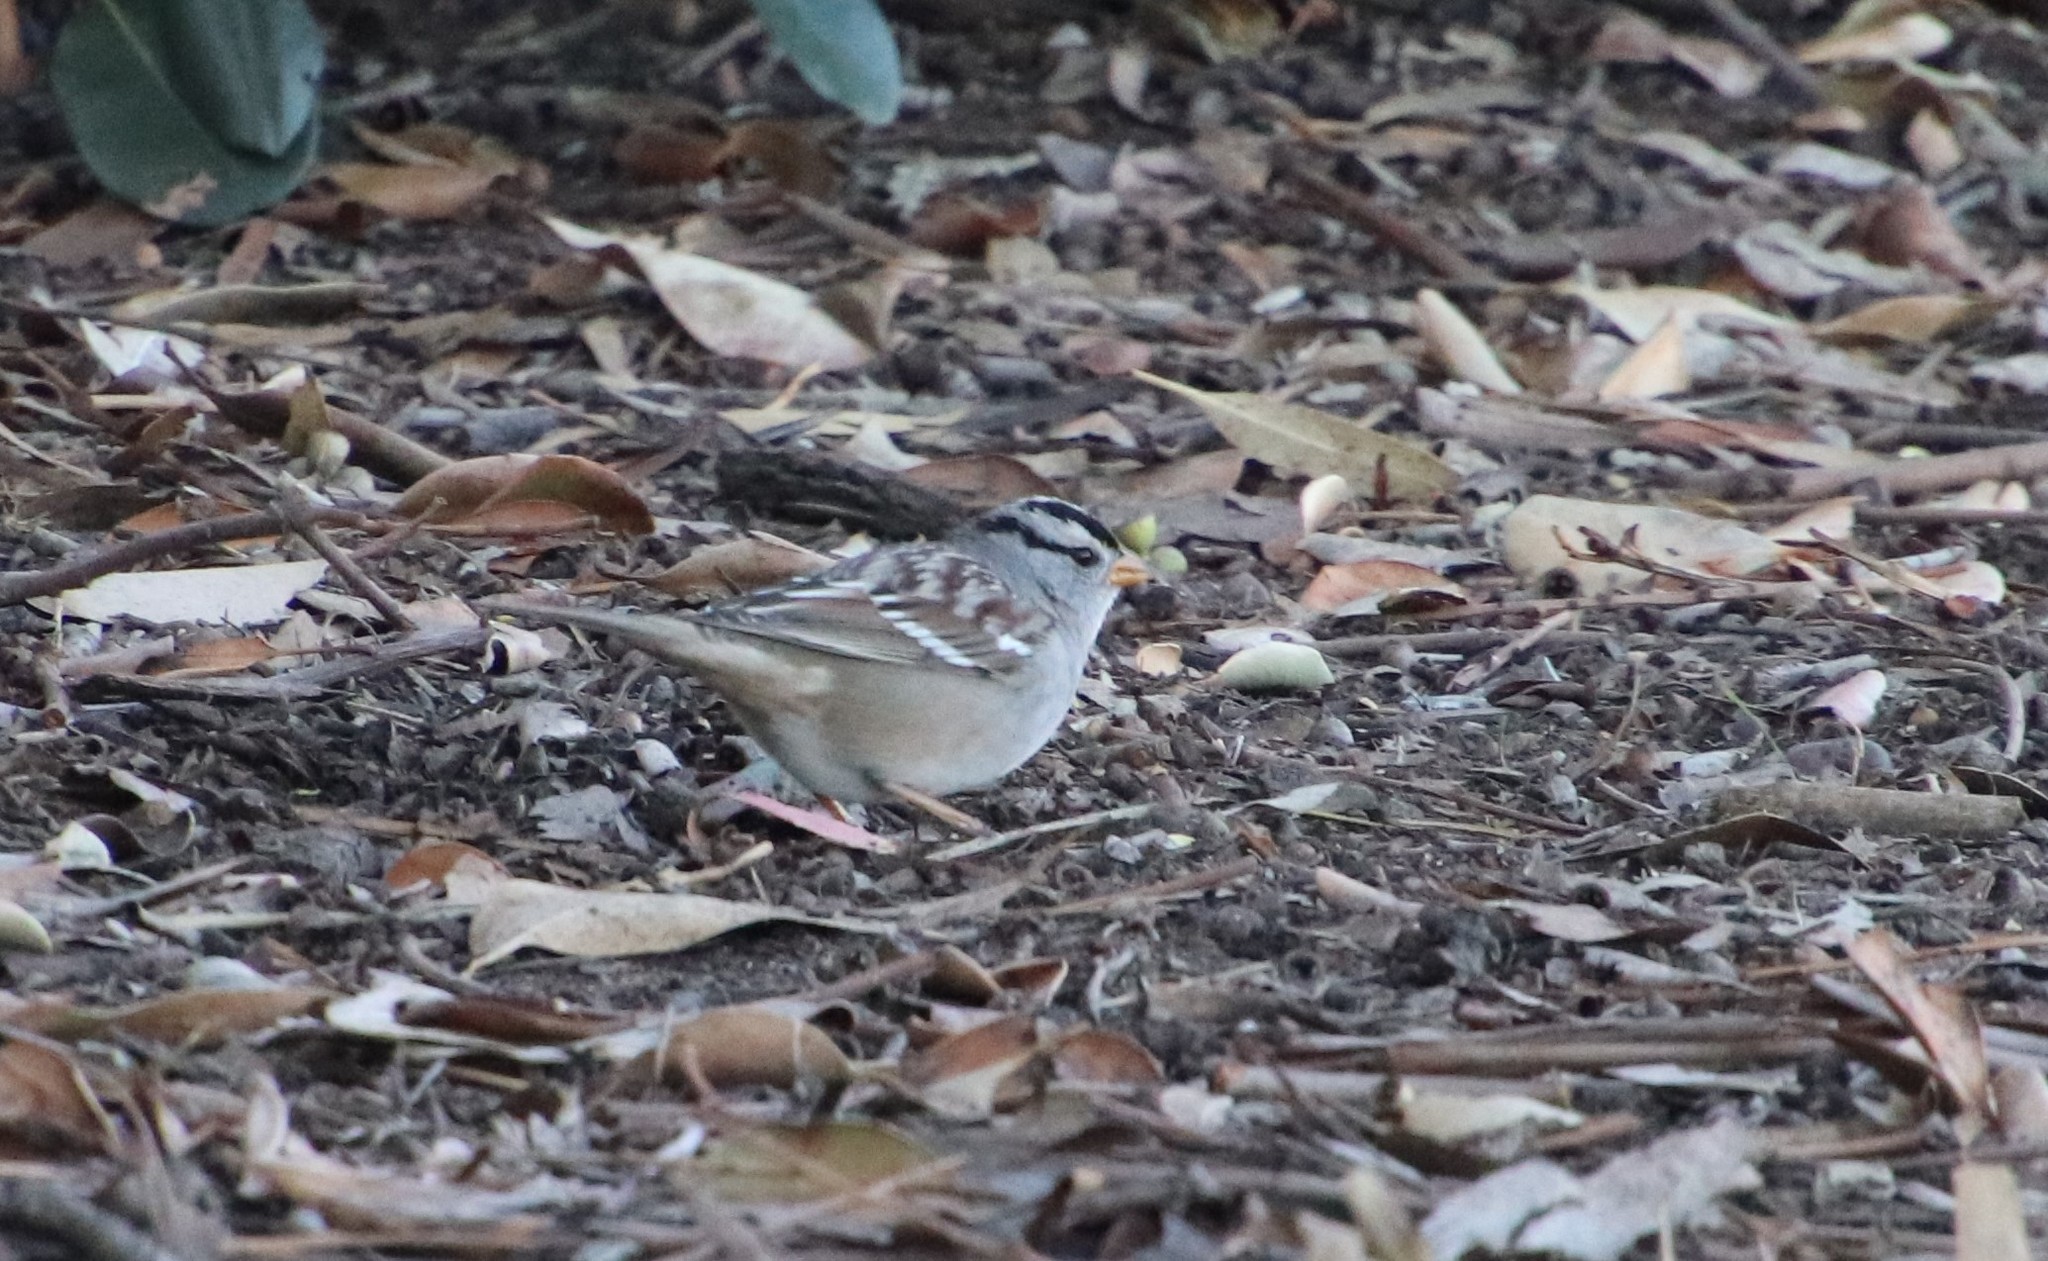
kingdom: Animalia
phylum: Chordata
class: Aves
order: Passeriformes
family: Passerellidae
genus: Zonotrichia
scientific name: Zonotrichia leucophrys
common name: White-crowned sparrow
